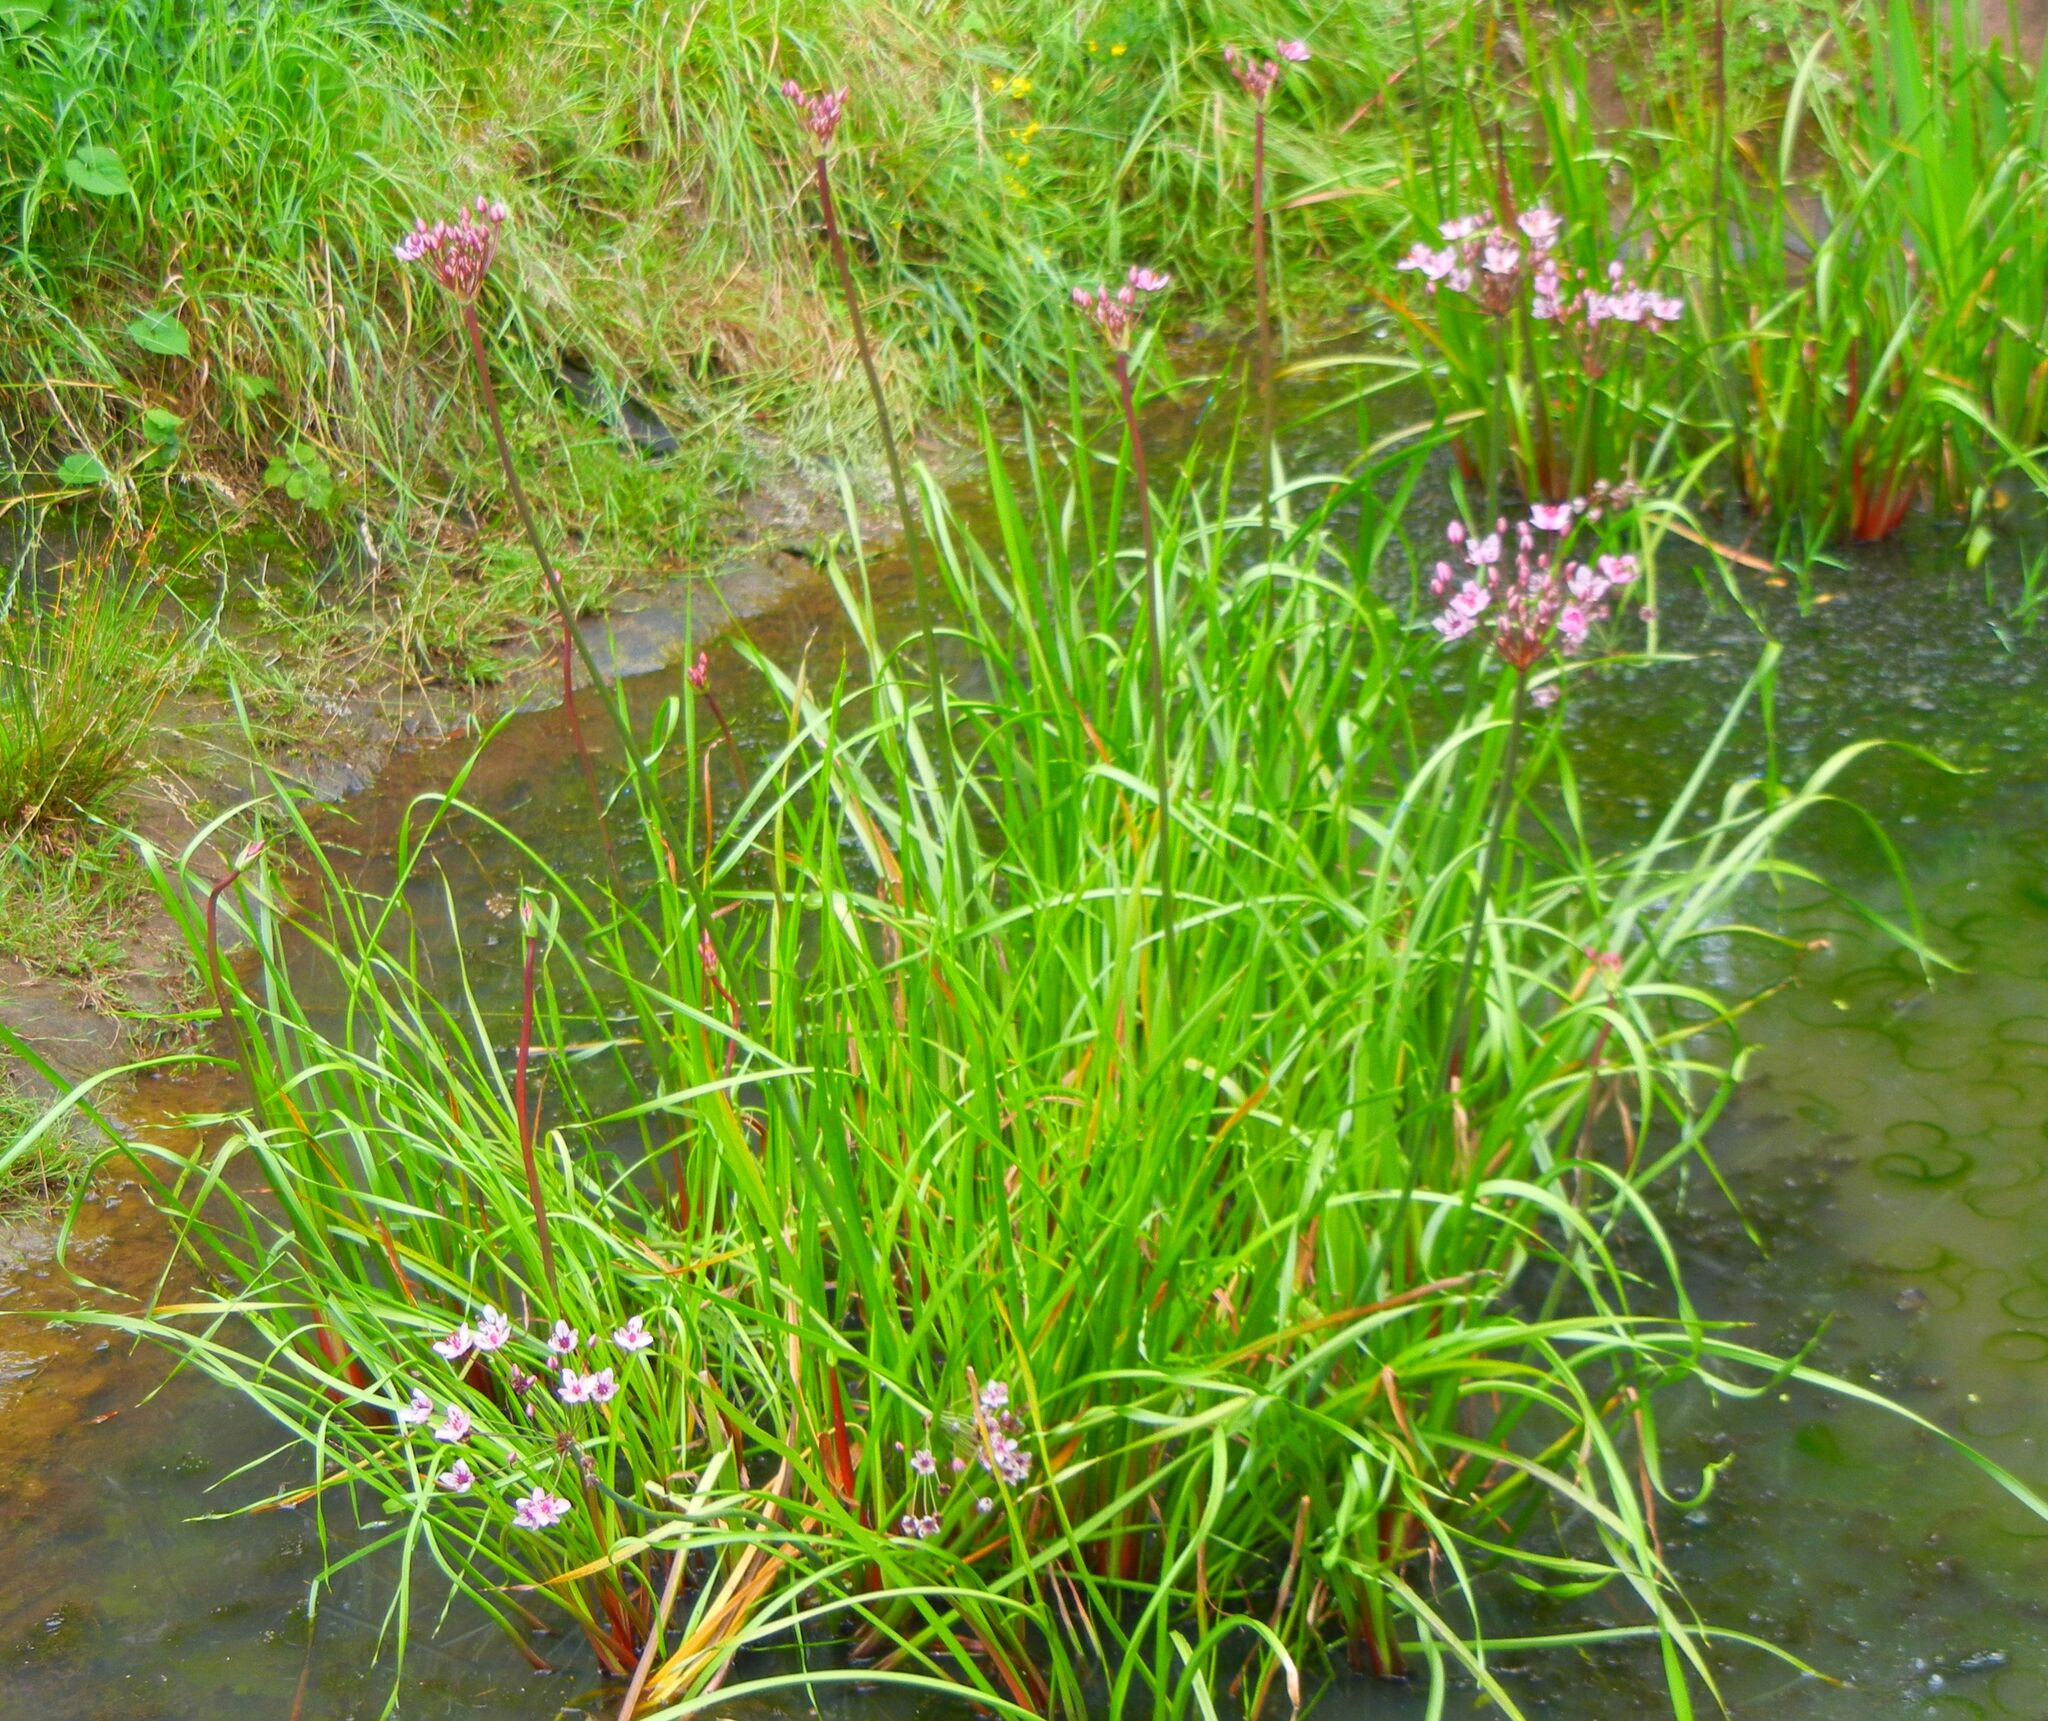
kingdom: Plantae
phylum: Tracheophyta
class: Liliopsida
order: Alismatales
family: Butomaceae
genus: Butomus
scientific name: Butomus umbellatus
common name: Flowering-rush
